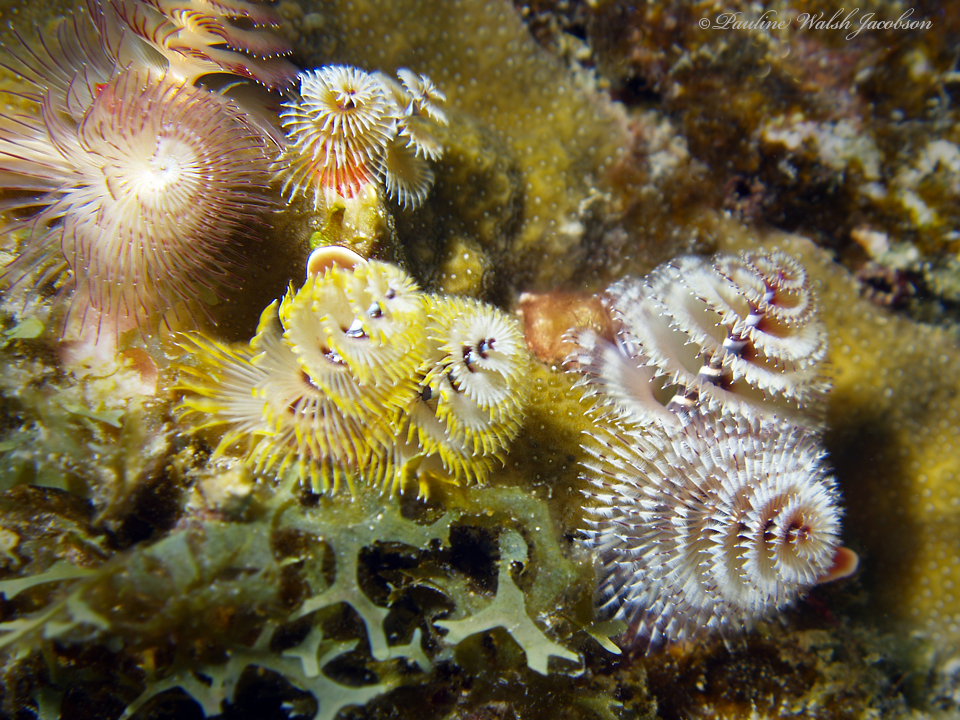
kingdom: Animalia
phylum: Annelida
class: Polychaeta
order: Sabellida
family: Serpulidae
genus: Spirobranchus
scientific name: Spirobranchus giganteus
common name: Christmas tree worm
